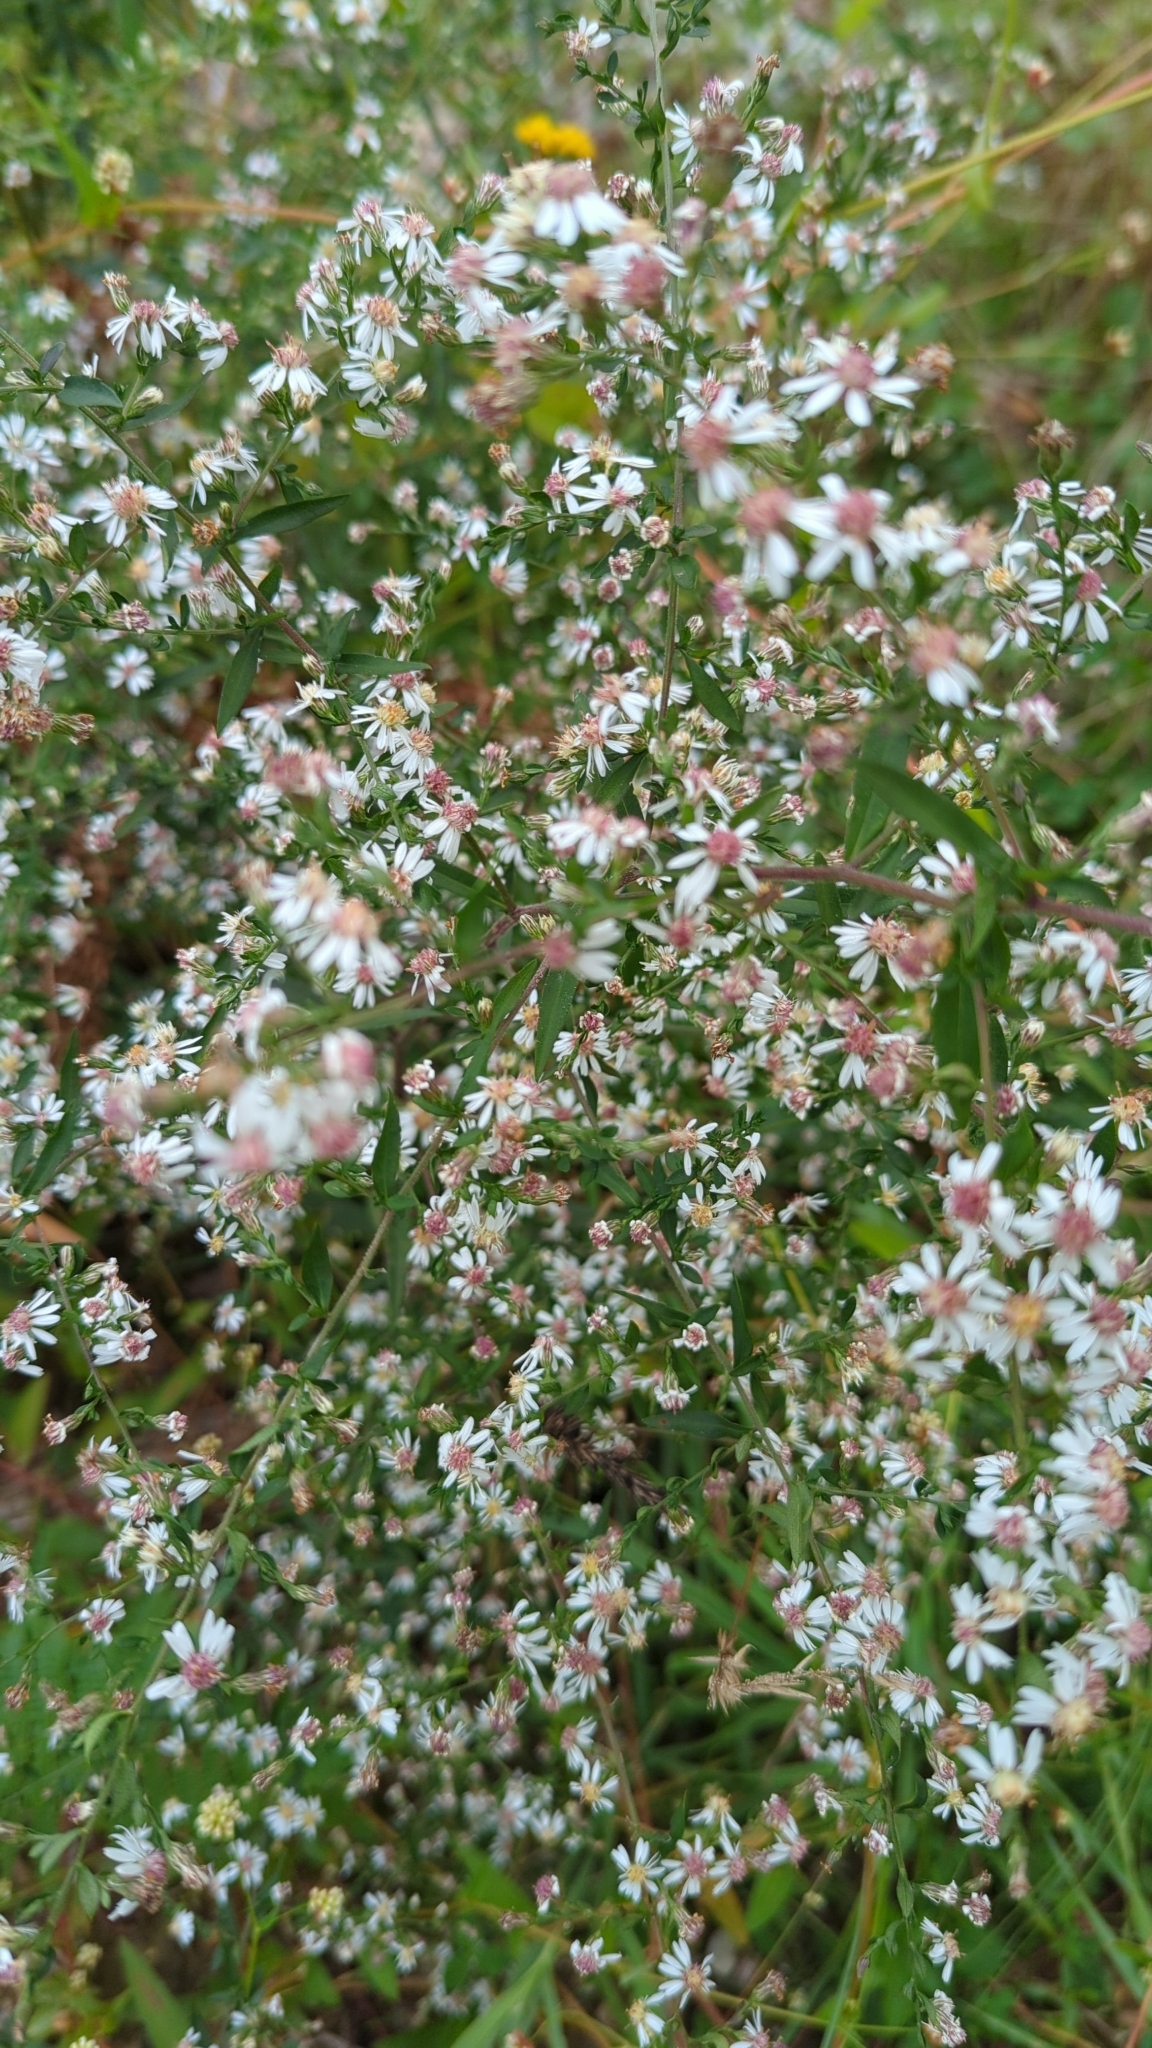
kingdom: Plantae
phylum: Tracheophyta
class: Magnoliopsida
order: Asterales
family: Asteraceae
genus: Symphyotrichum
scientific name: Symphyotrichum lateriflorum
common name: Calico aster
